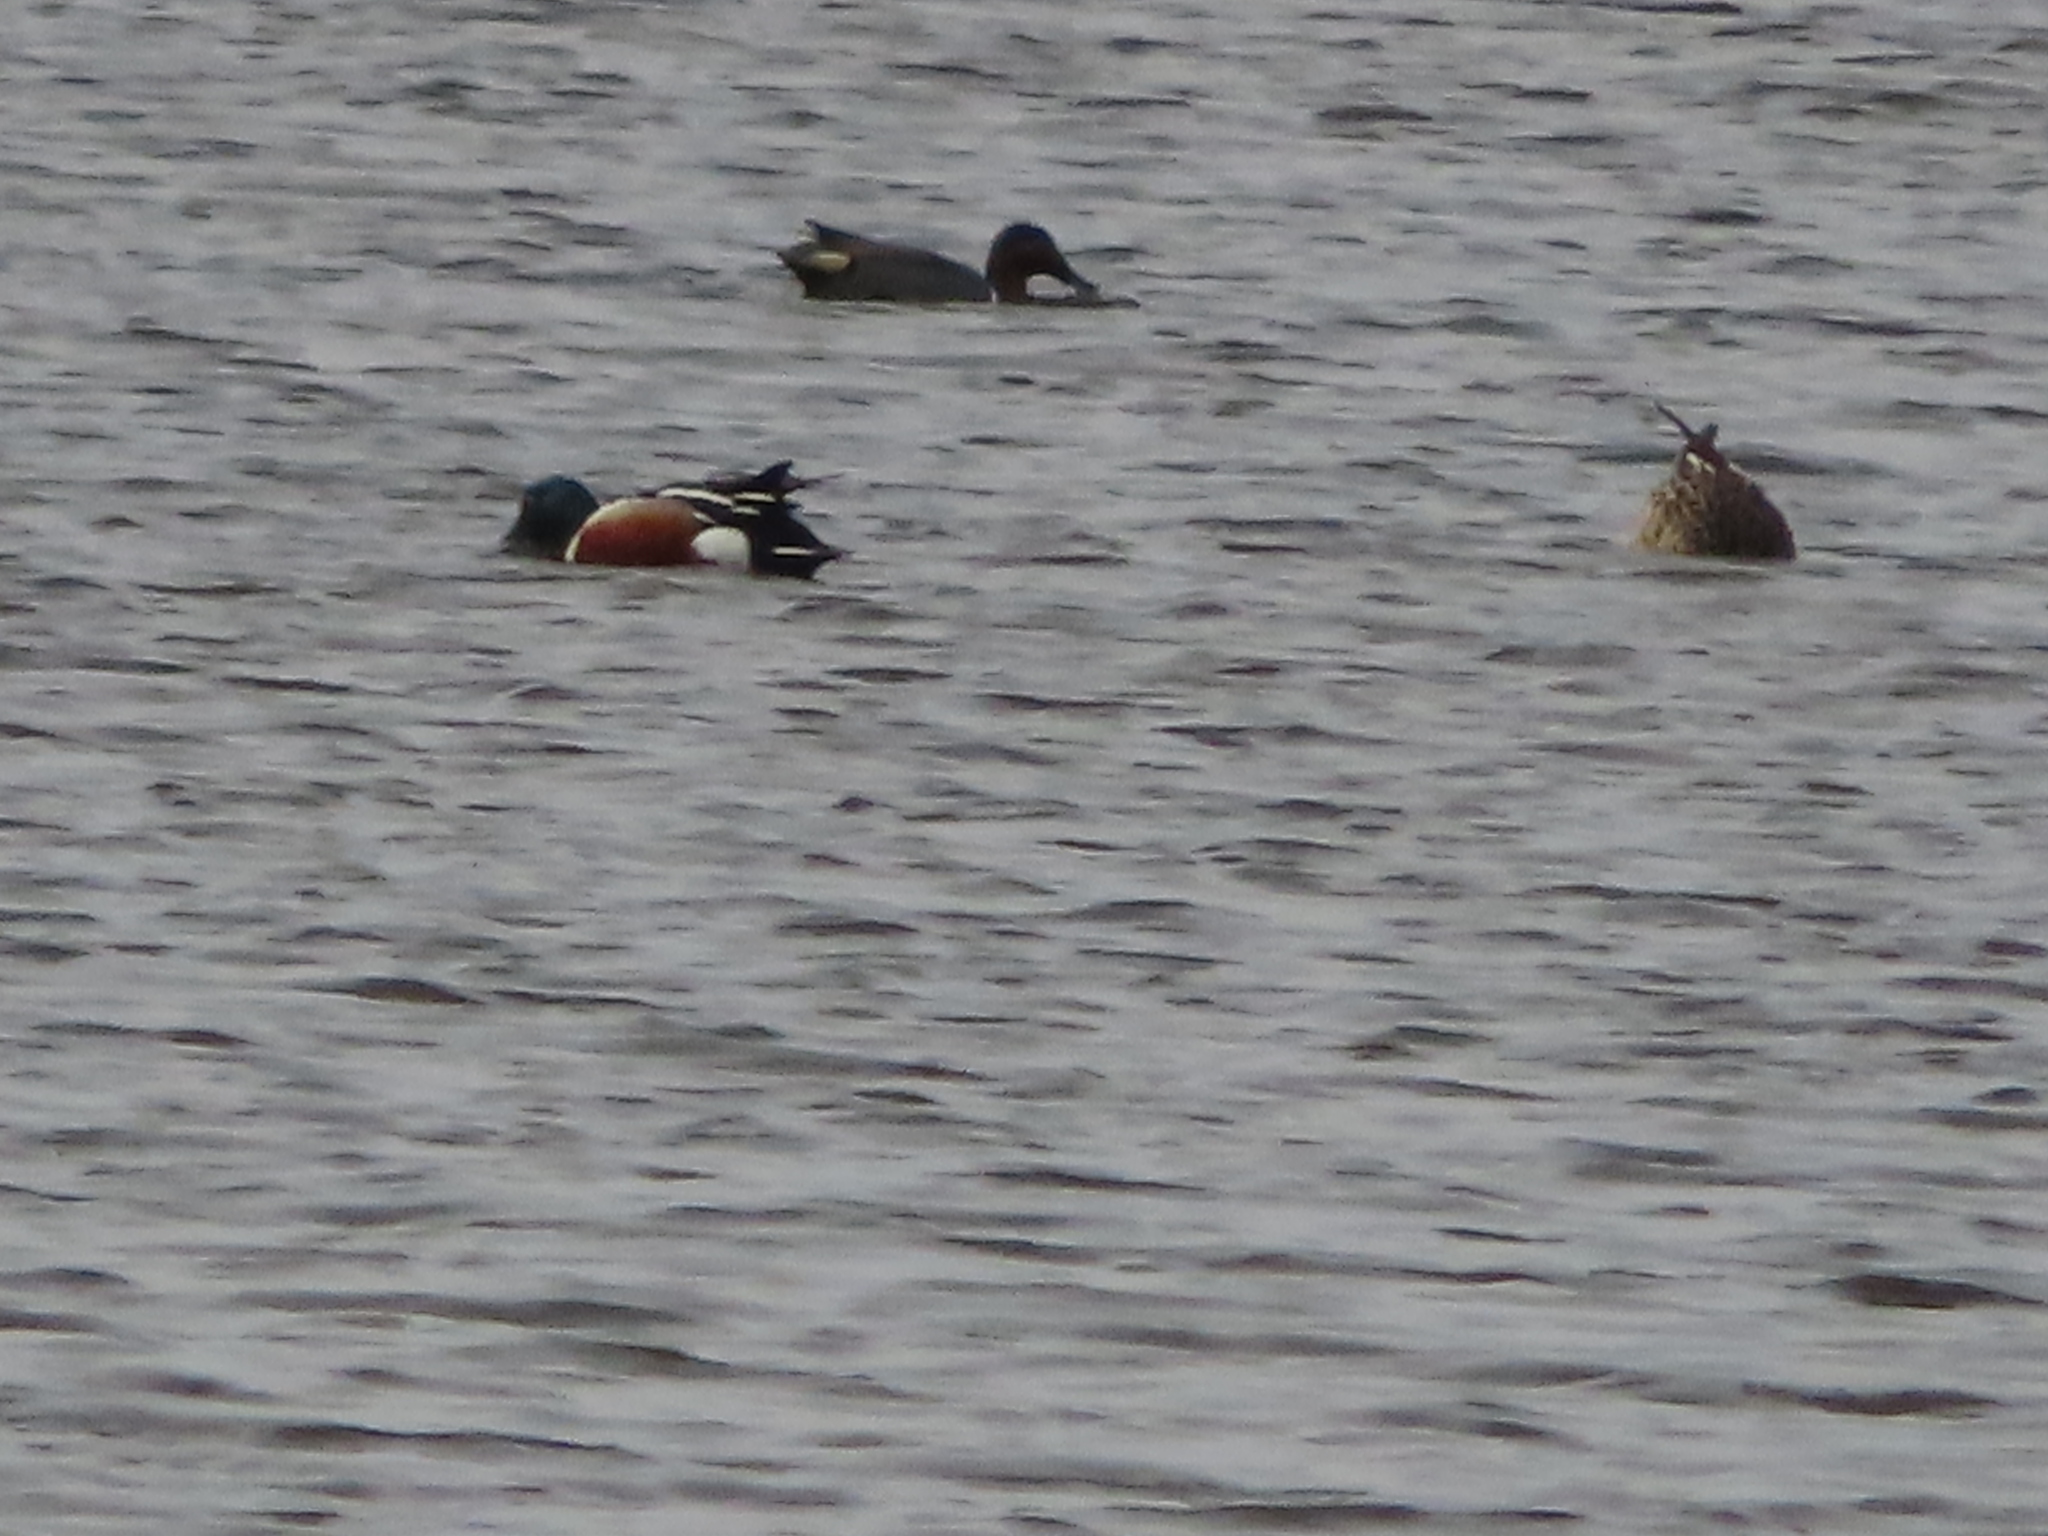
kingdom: Animalia
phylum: Chordata
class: Aves
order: Anseriformes
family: Anatidae
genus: Spatula
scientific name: Spatula clypeata
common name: Northern shoveler
